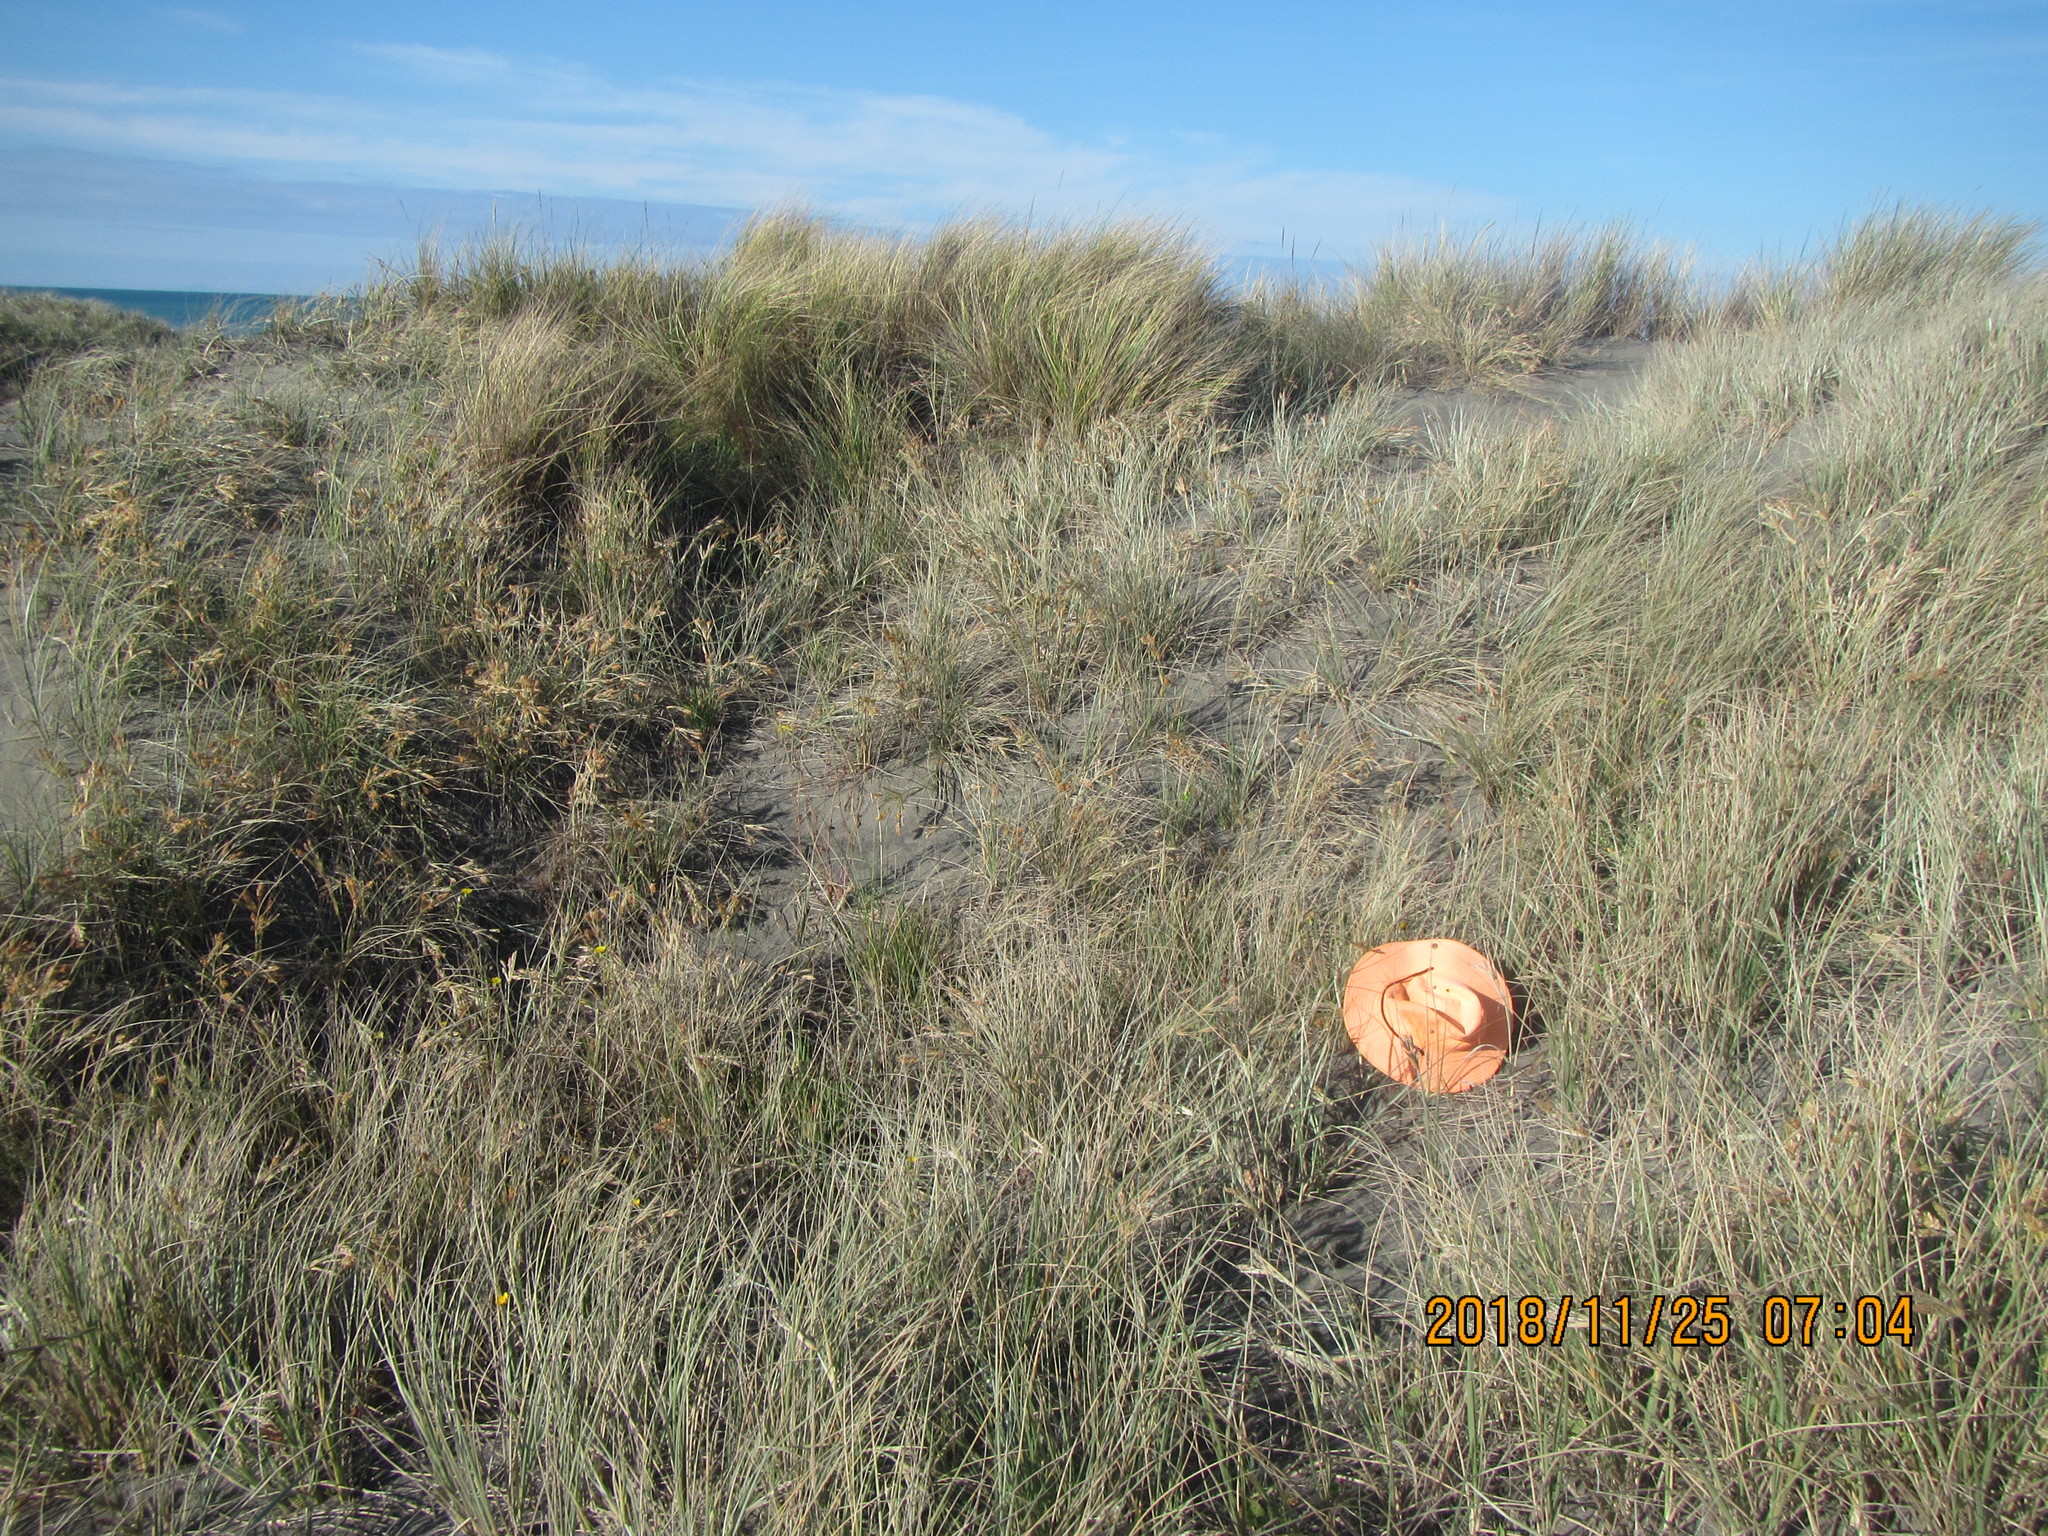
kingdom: Plantae
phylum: Tracheophyta
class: Magnoliopsida
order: Asterales
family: Asteraceae
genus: Hypochaeris
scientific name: Hypochaeris radicata
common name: Flatweed
